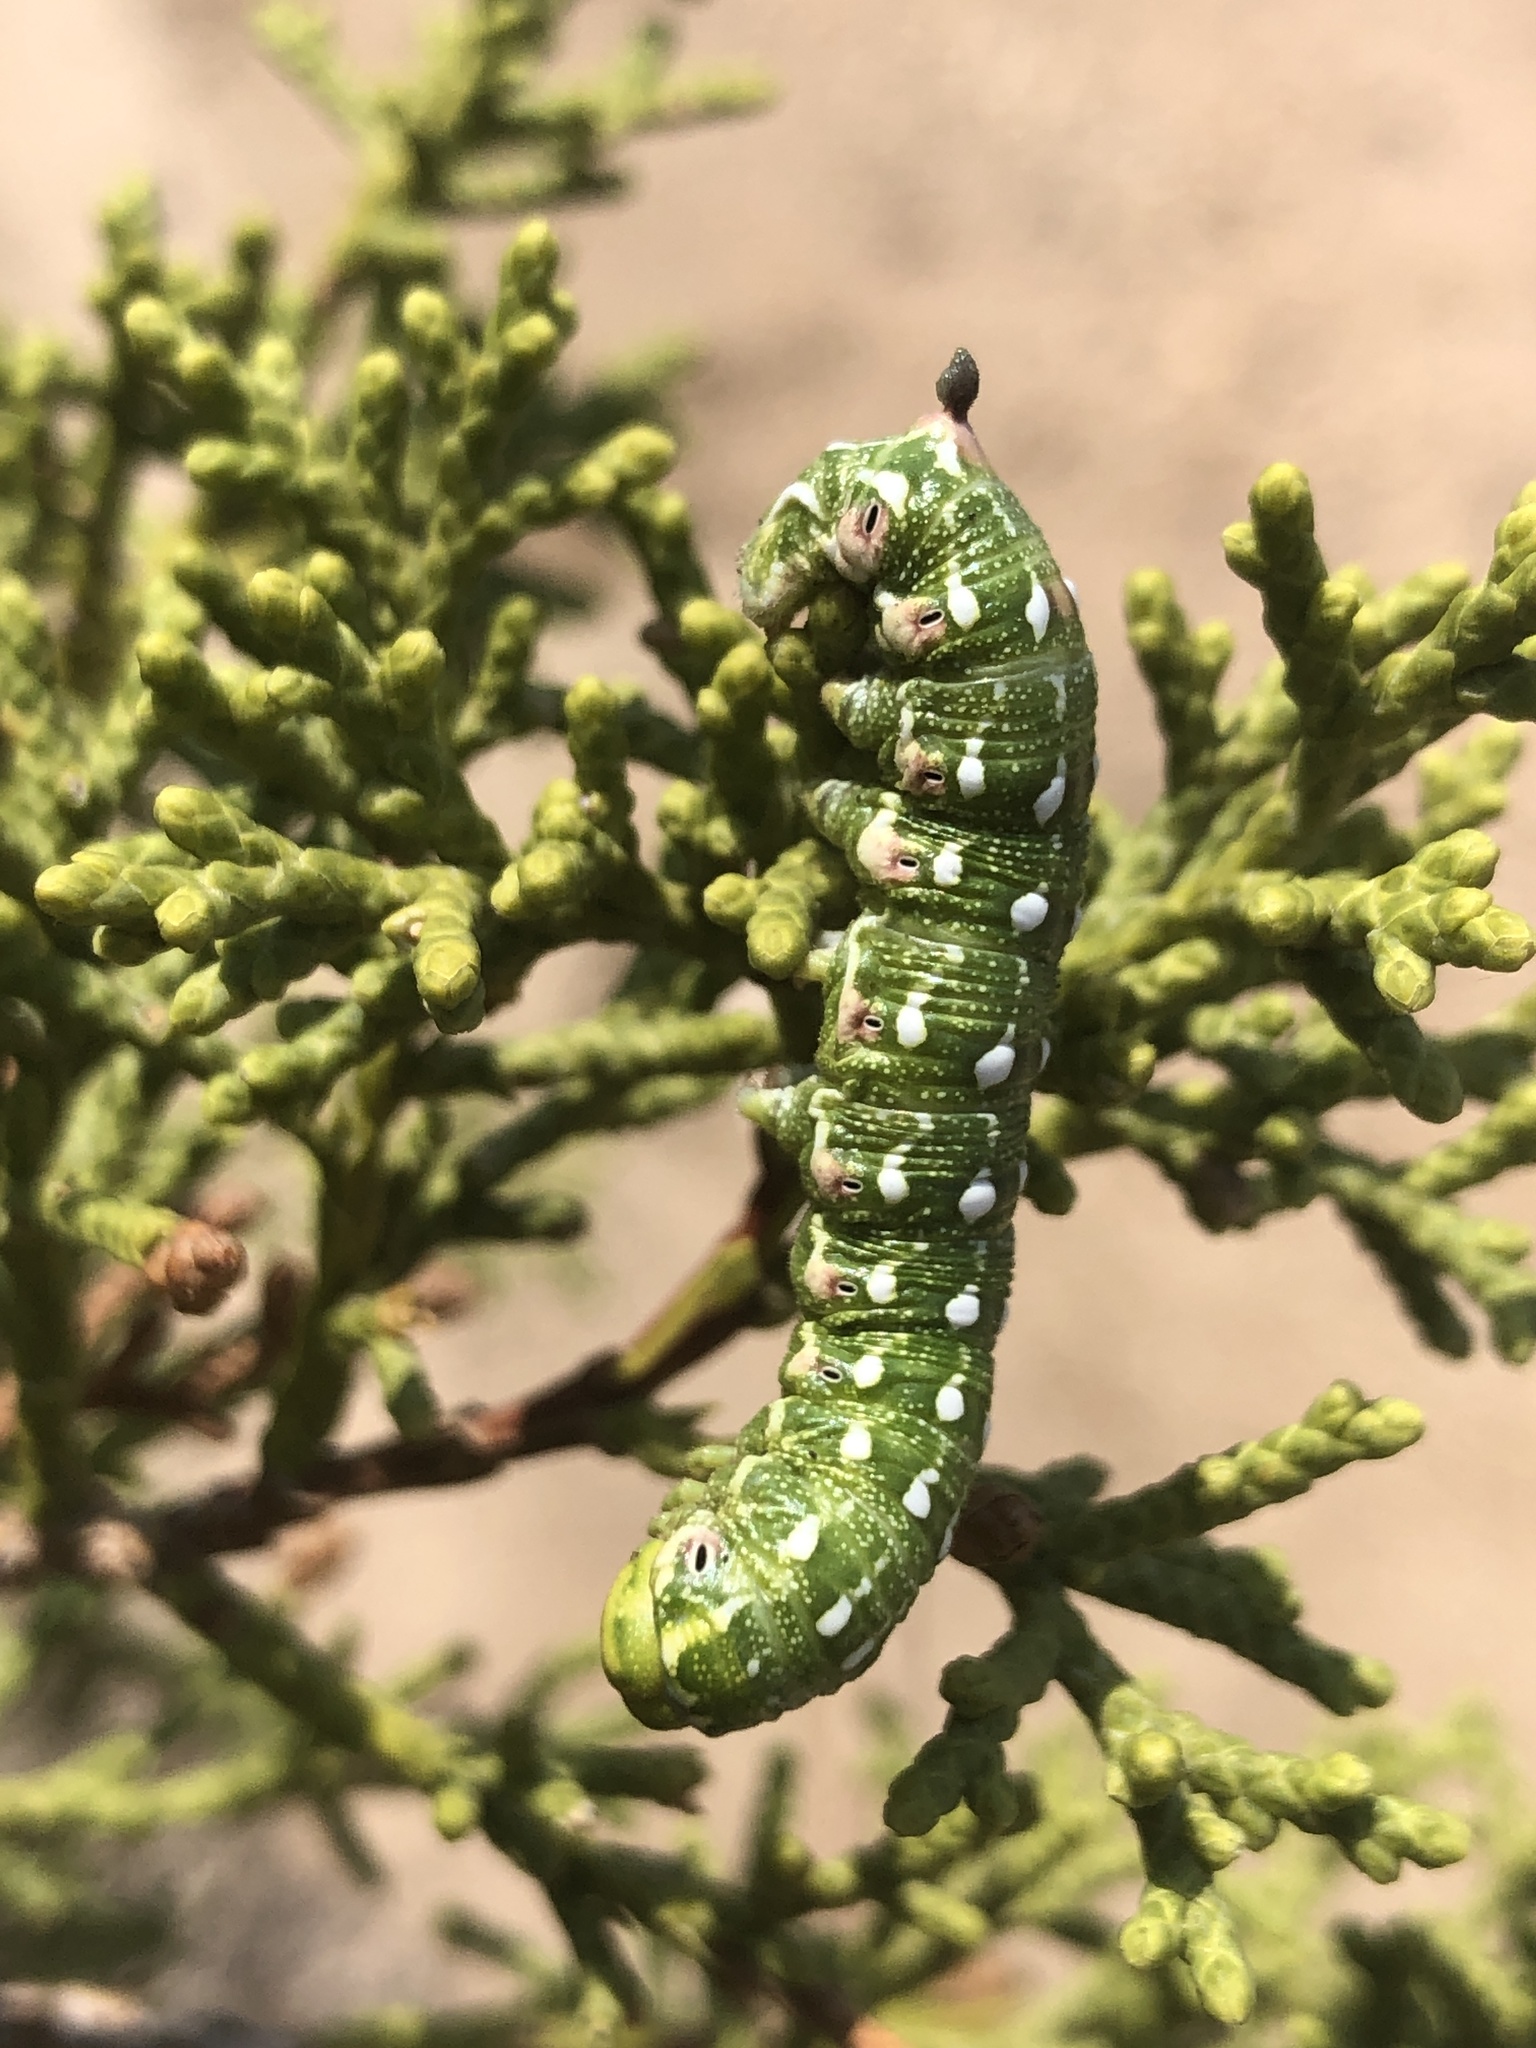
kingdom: Animalia
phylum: Arthropoda
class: Insecta
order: Lepidoptera
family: Sphingidae
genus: Sphinx
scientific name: Sphinx sequoiae
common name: Sequoia sphinx
